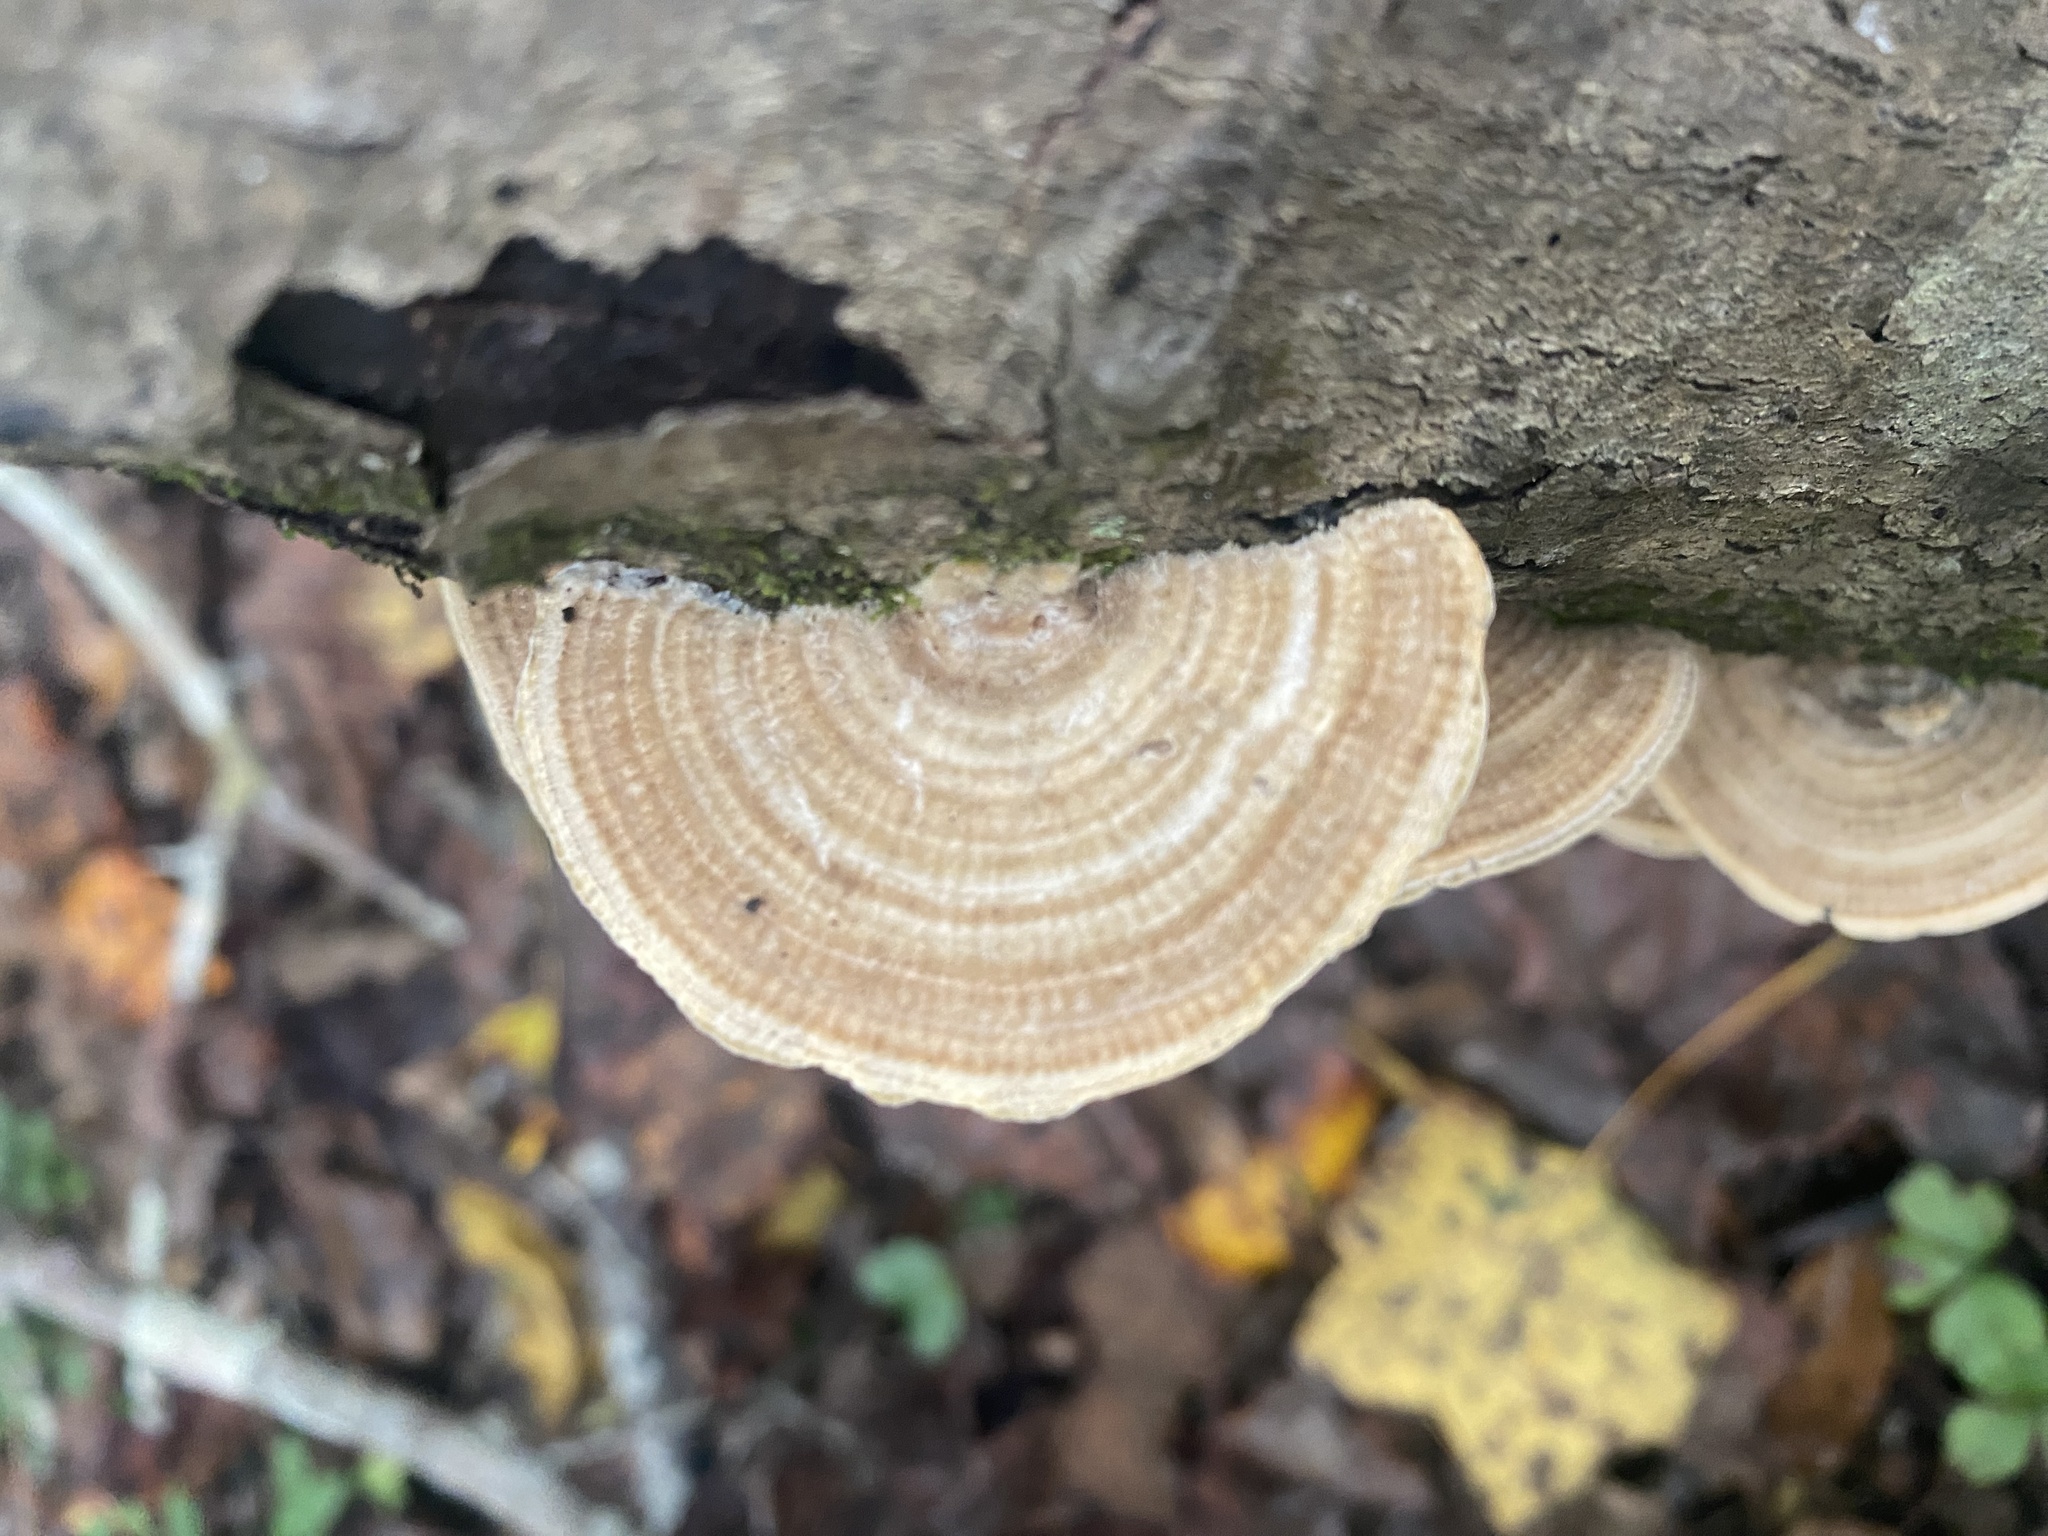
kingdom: Fungi
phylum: Basidiomycota
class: Agaricomycetes
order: Polyporales
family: Polyporaceae
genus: Lenzites
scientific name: Lenzites betulinus
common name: Birch mazegill
